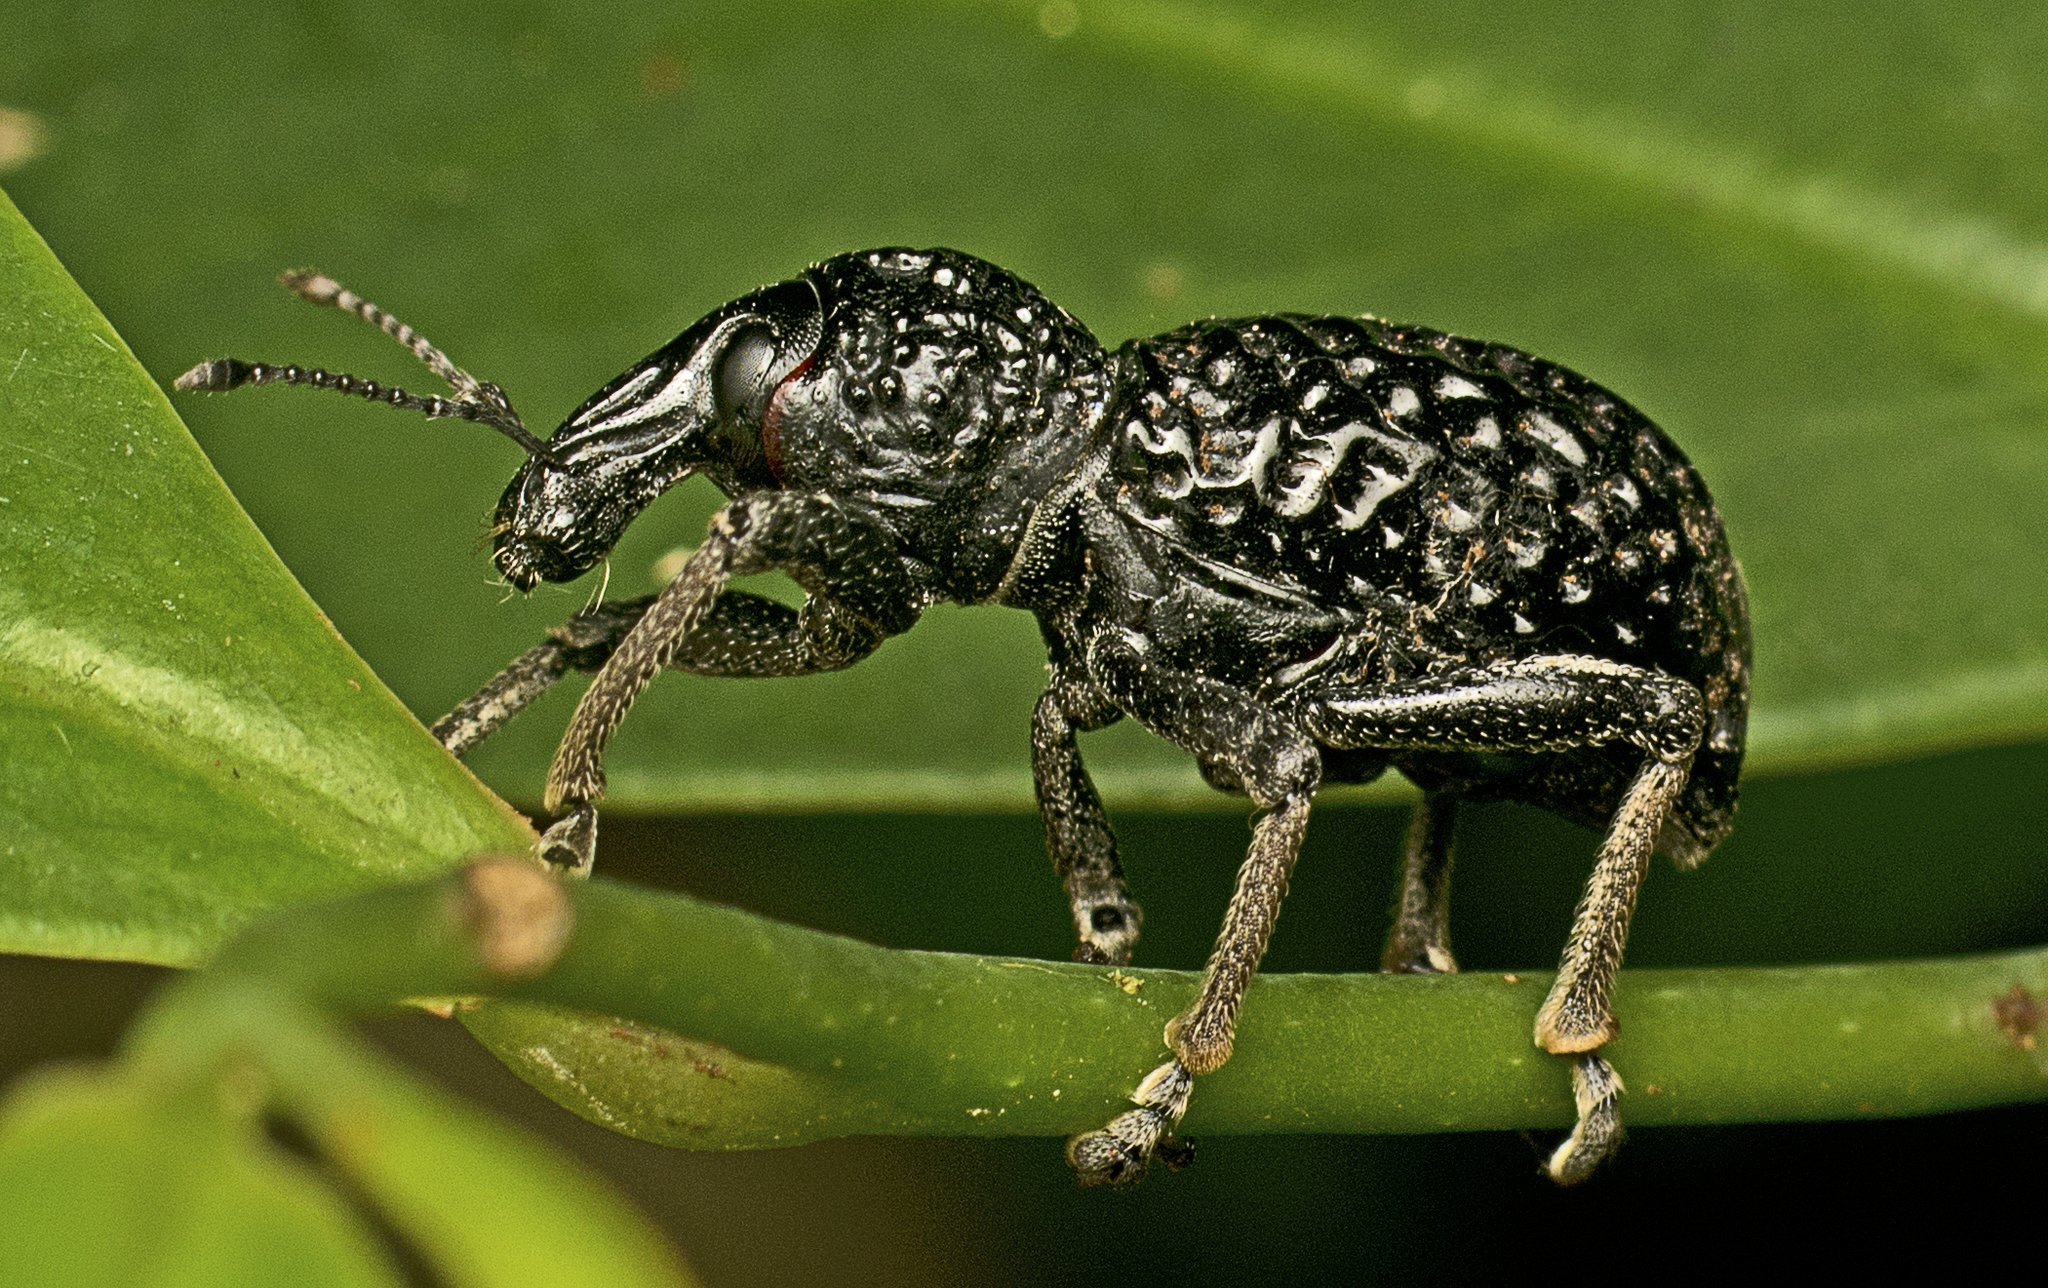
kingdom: Animalia
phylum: Arthropoda
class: Insecta
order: Coleoptera
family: Curculionidae
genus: Zymaus
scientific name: Zymaus angustus
